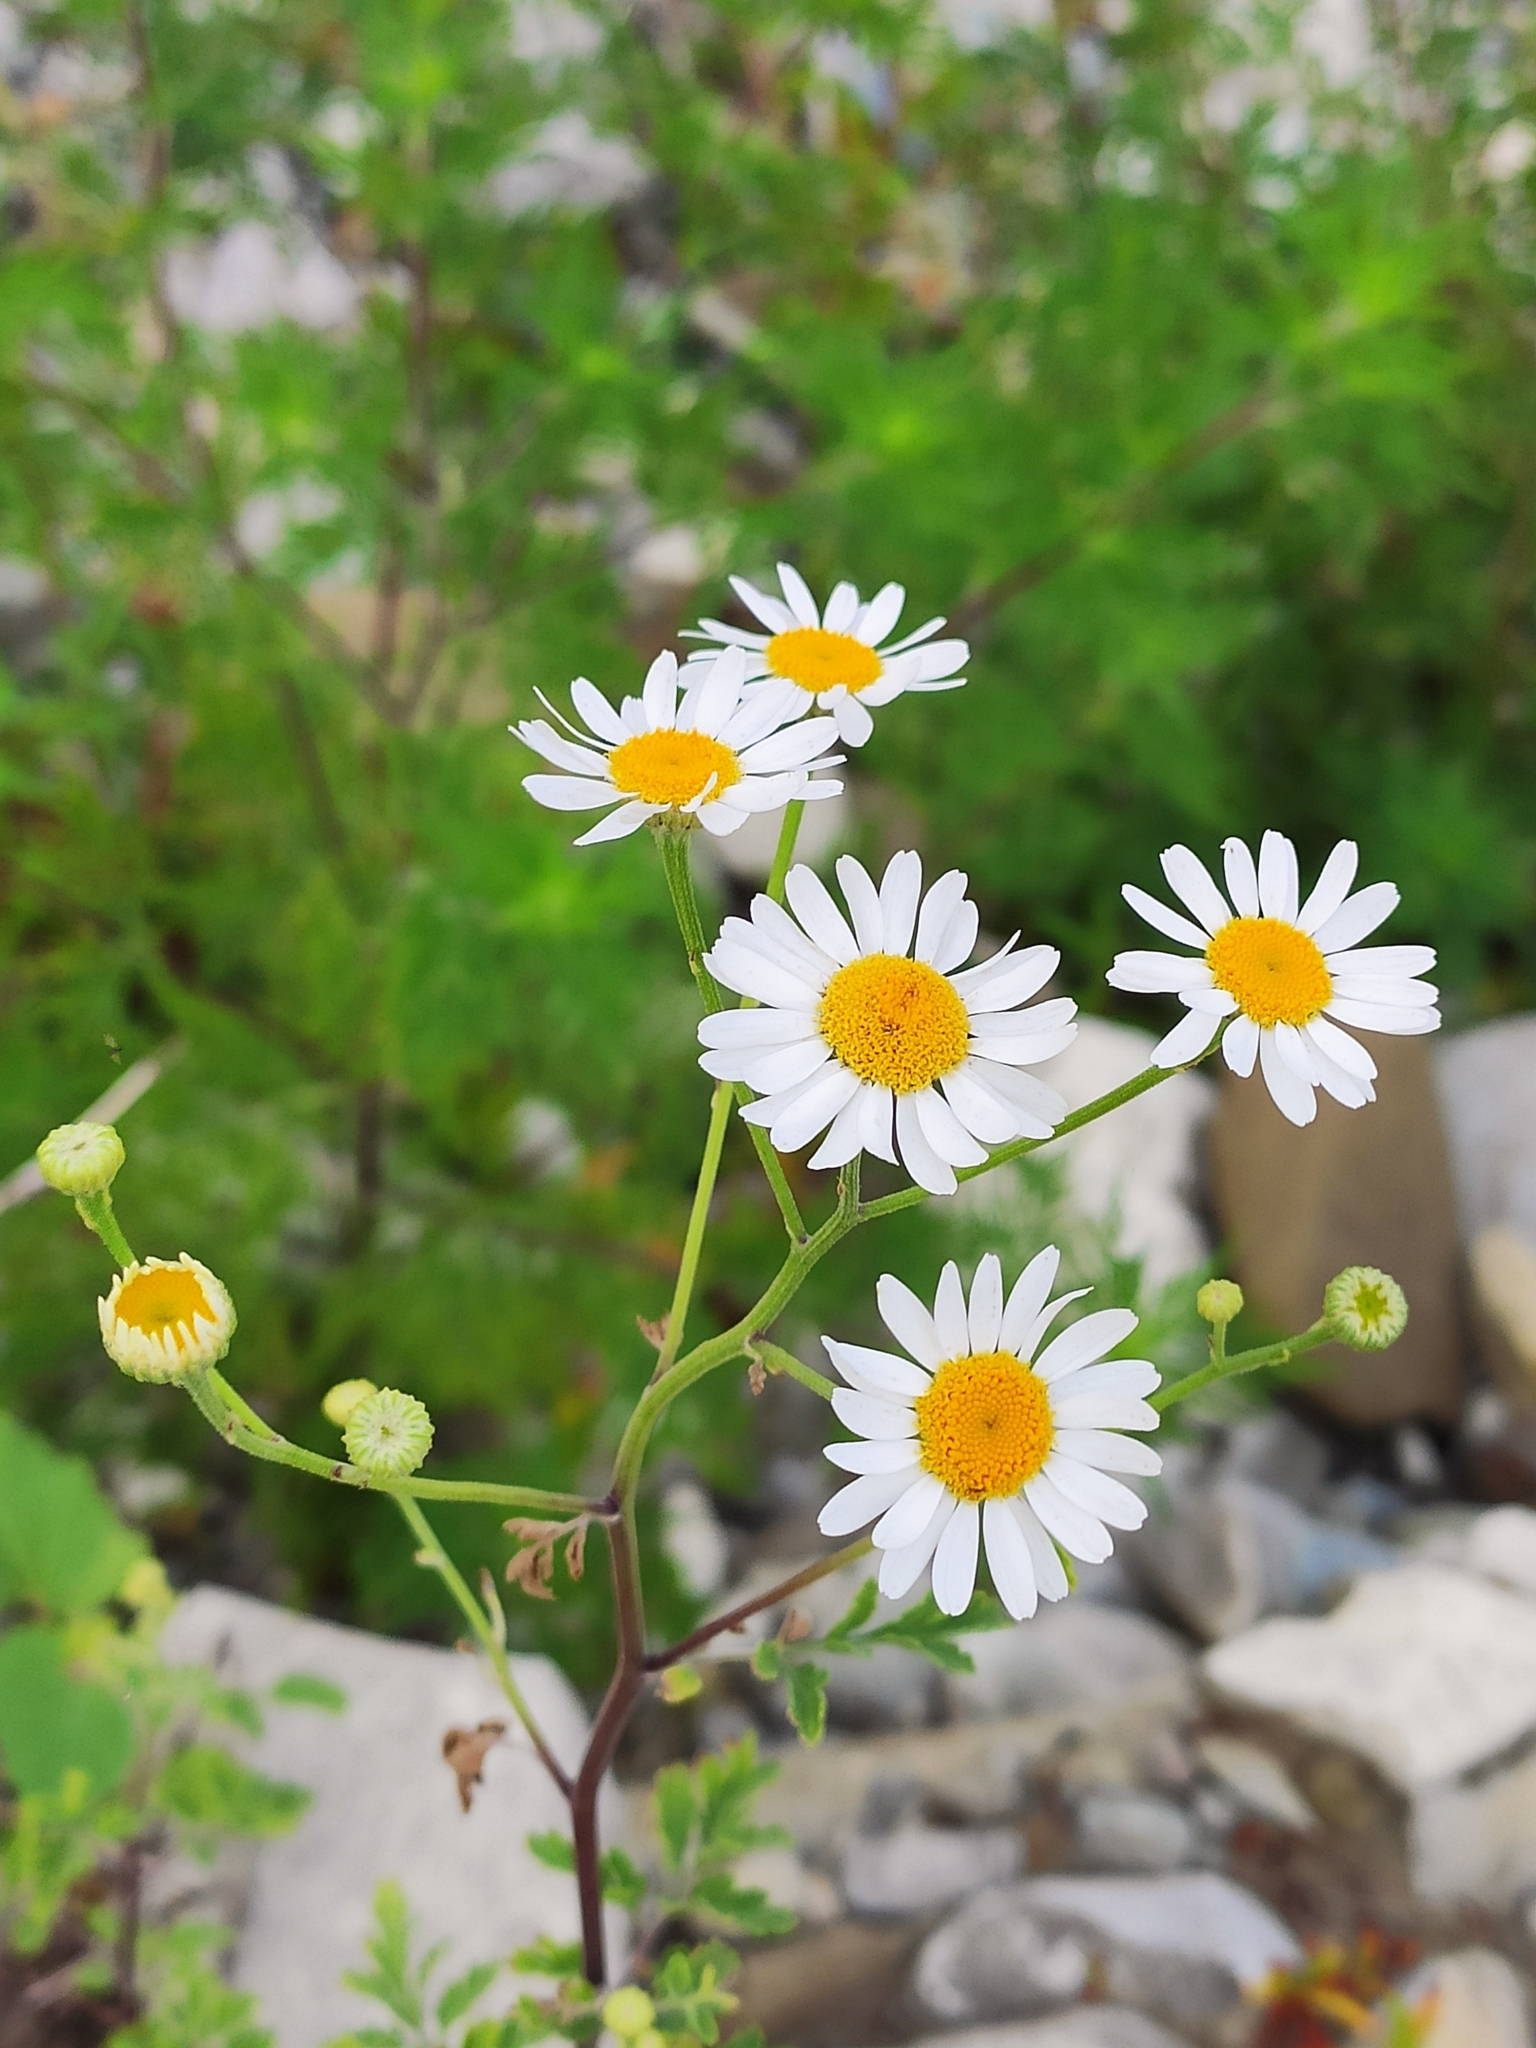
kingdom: Plantae
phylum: Tracheophyta
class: Magnoliopsida
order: Asterales
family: Asteraceae
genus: Tanacetum
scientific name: Tanacetum partheniifolium
